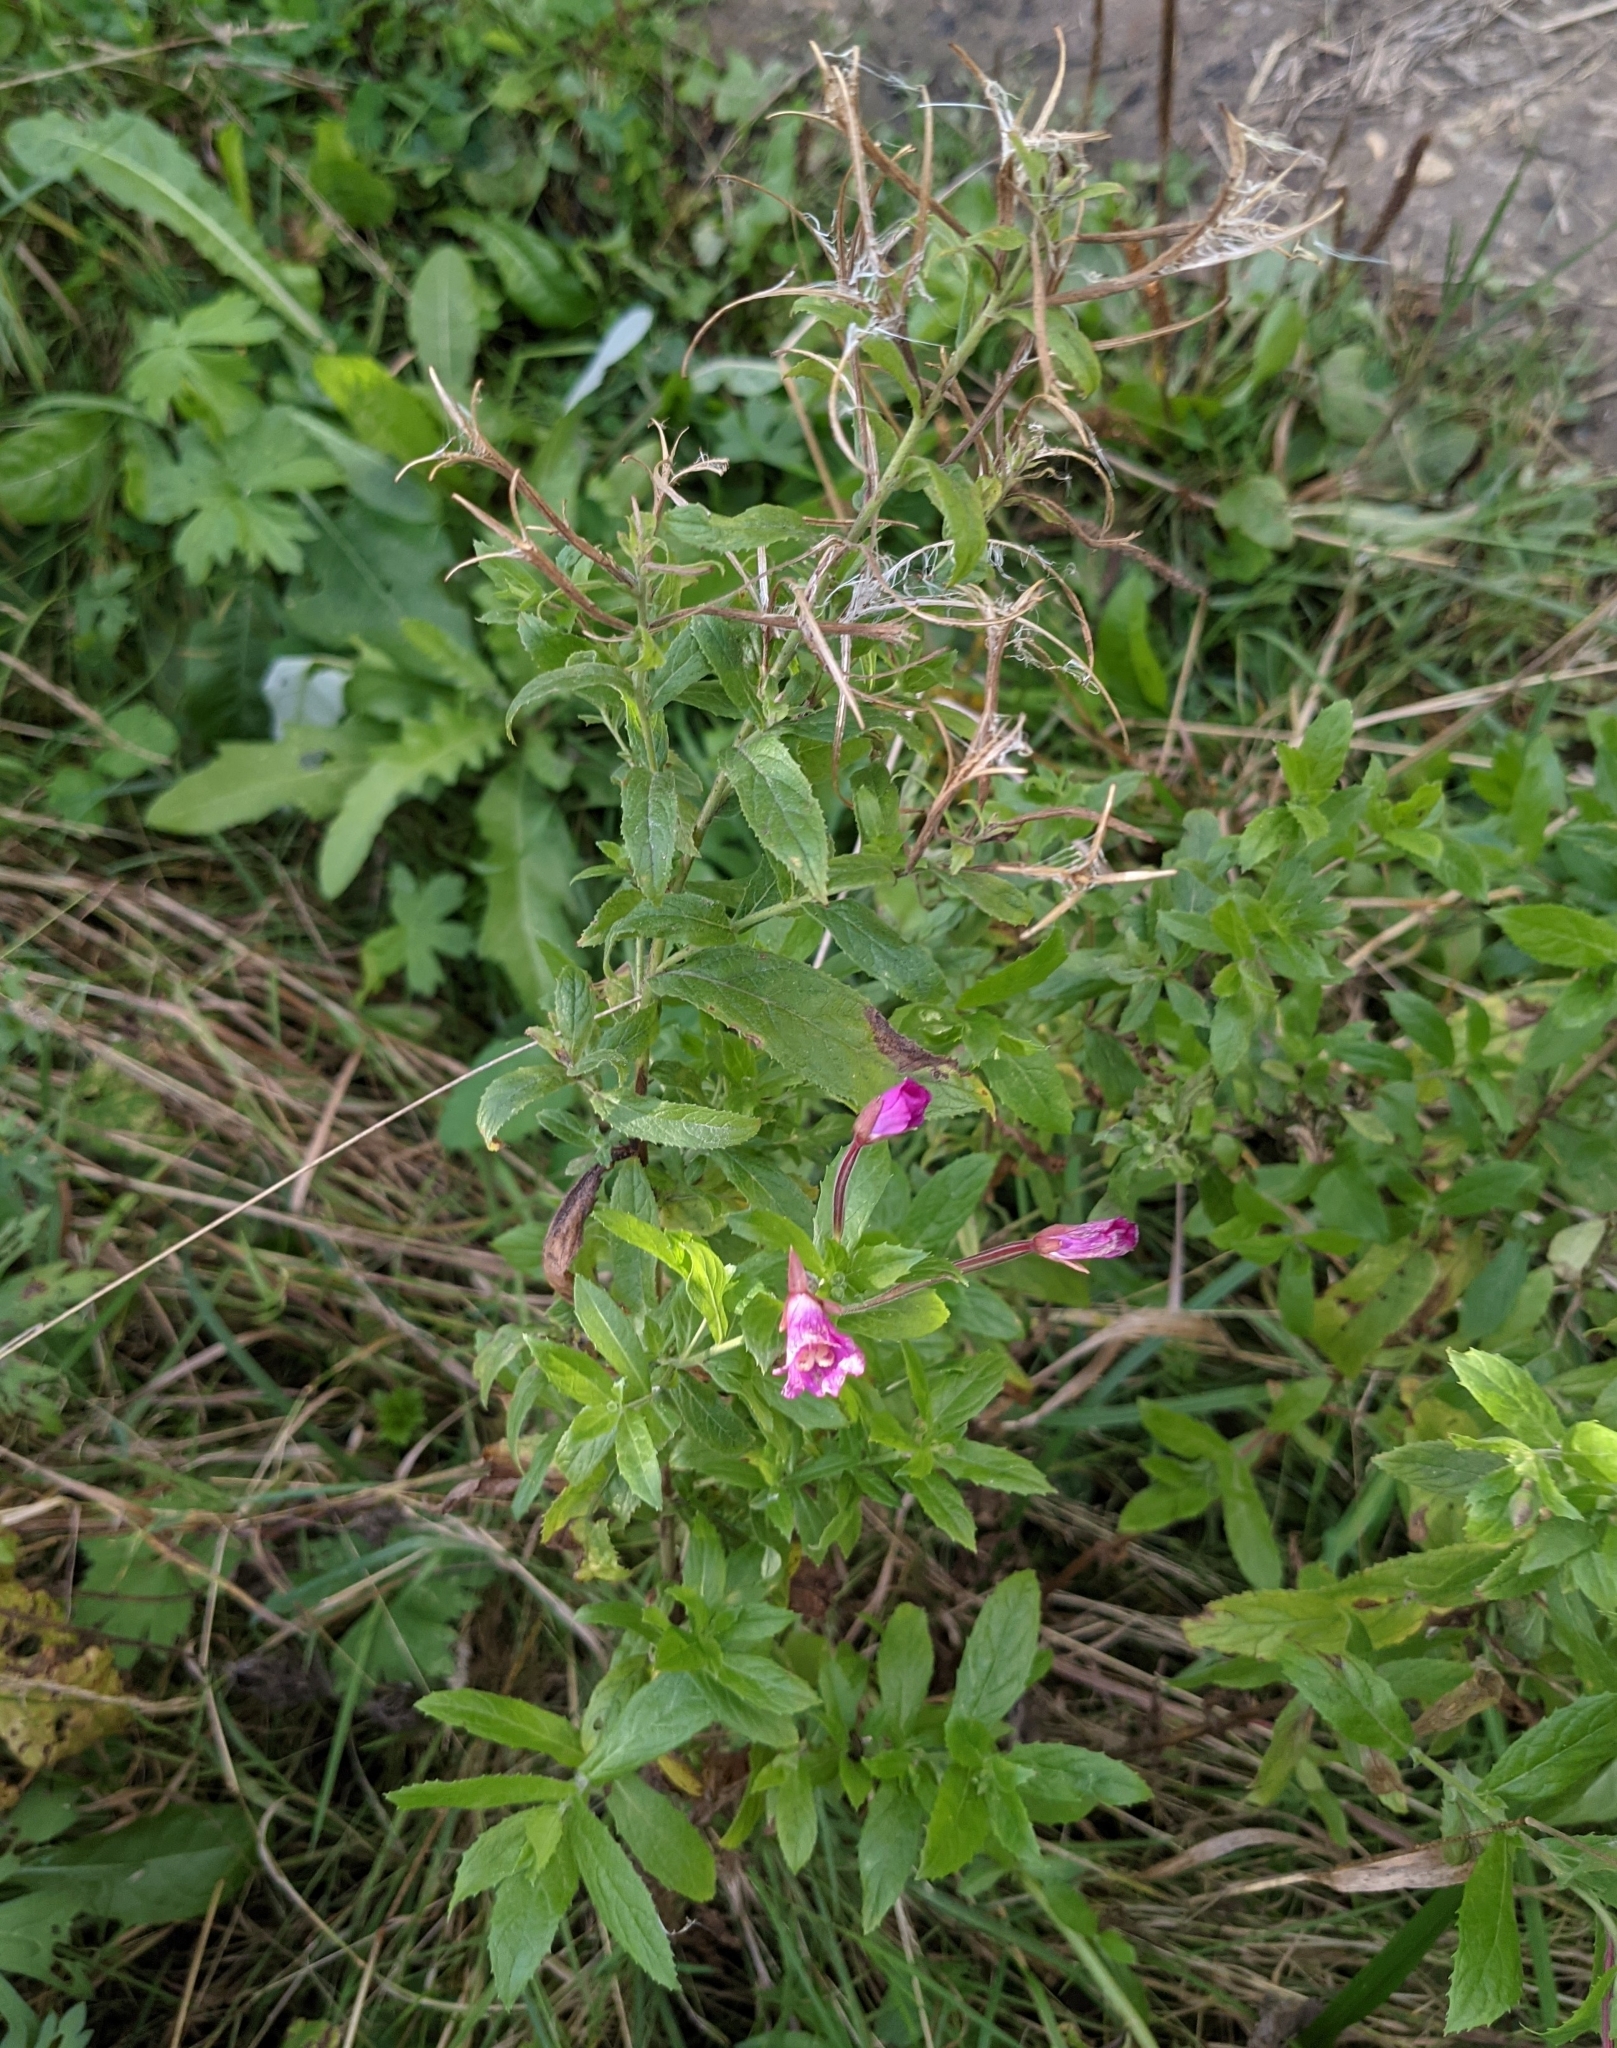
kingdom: Plantae
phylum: Tracheophyta
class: Magnoliopsida
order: Myrtales
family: Onagraceae
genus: Epilobium
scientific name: Epilobium hirsutum
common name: Great willowherb
